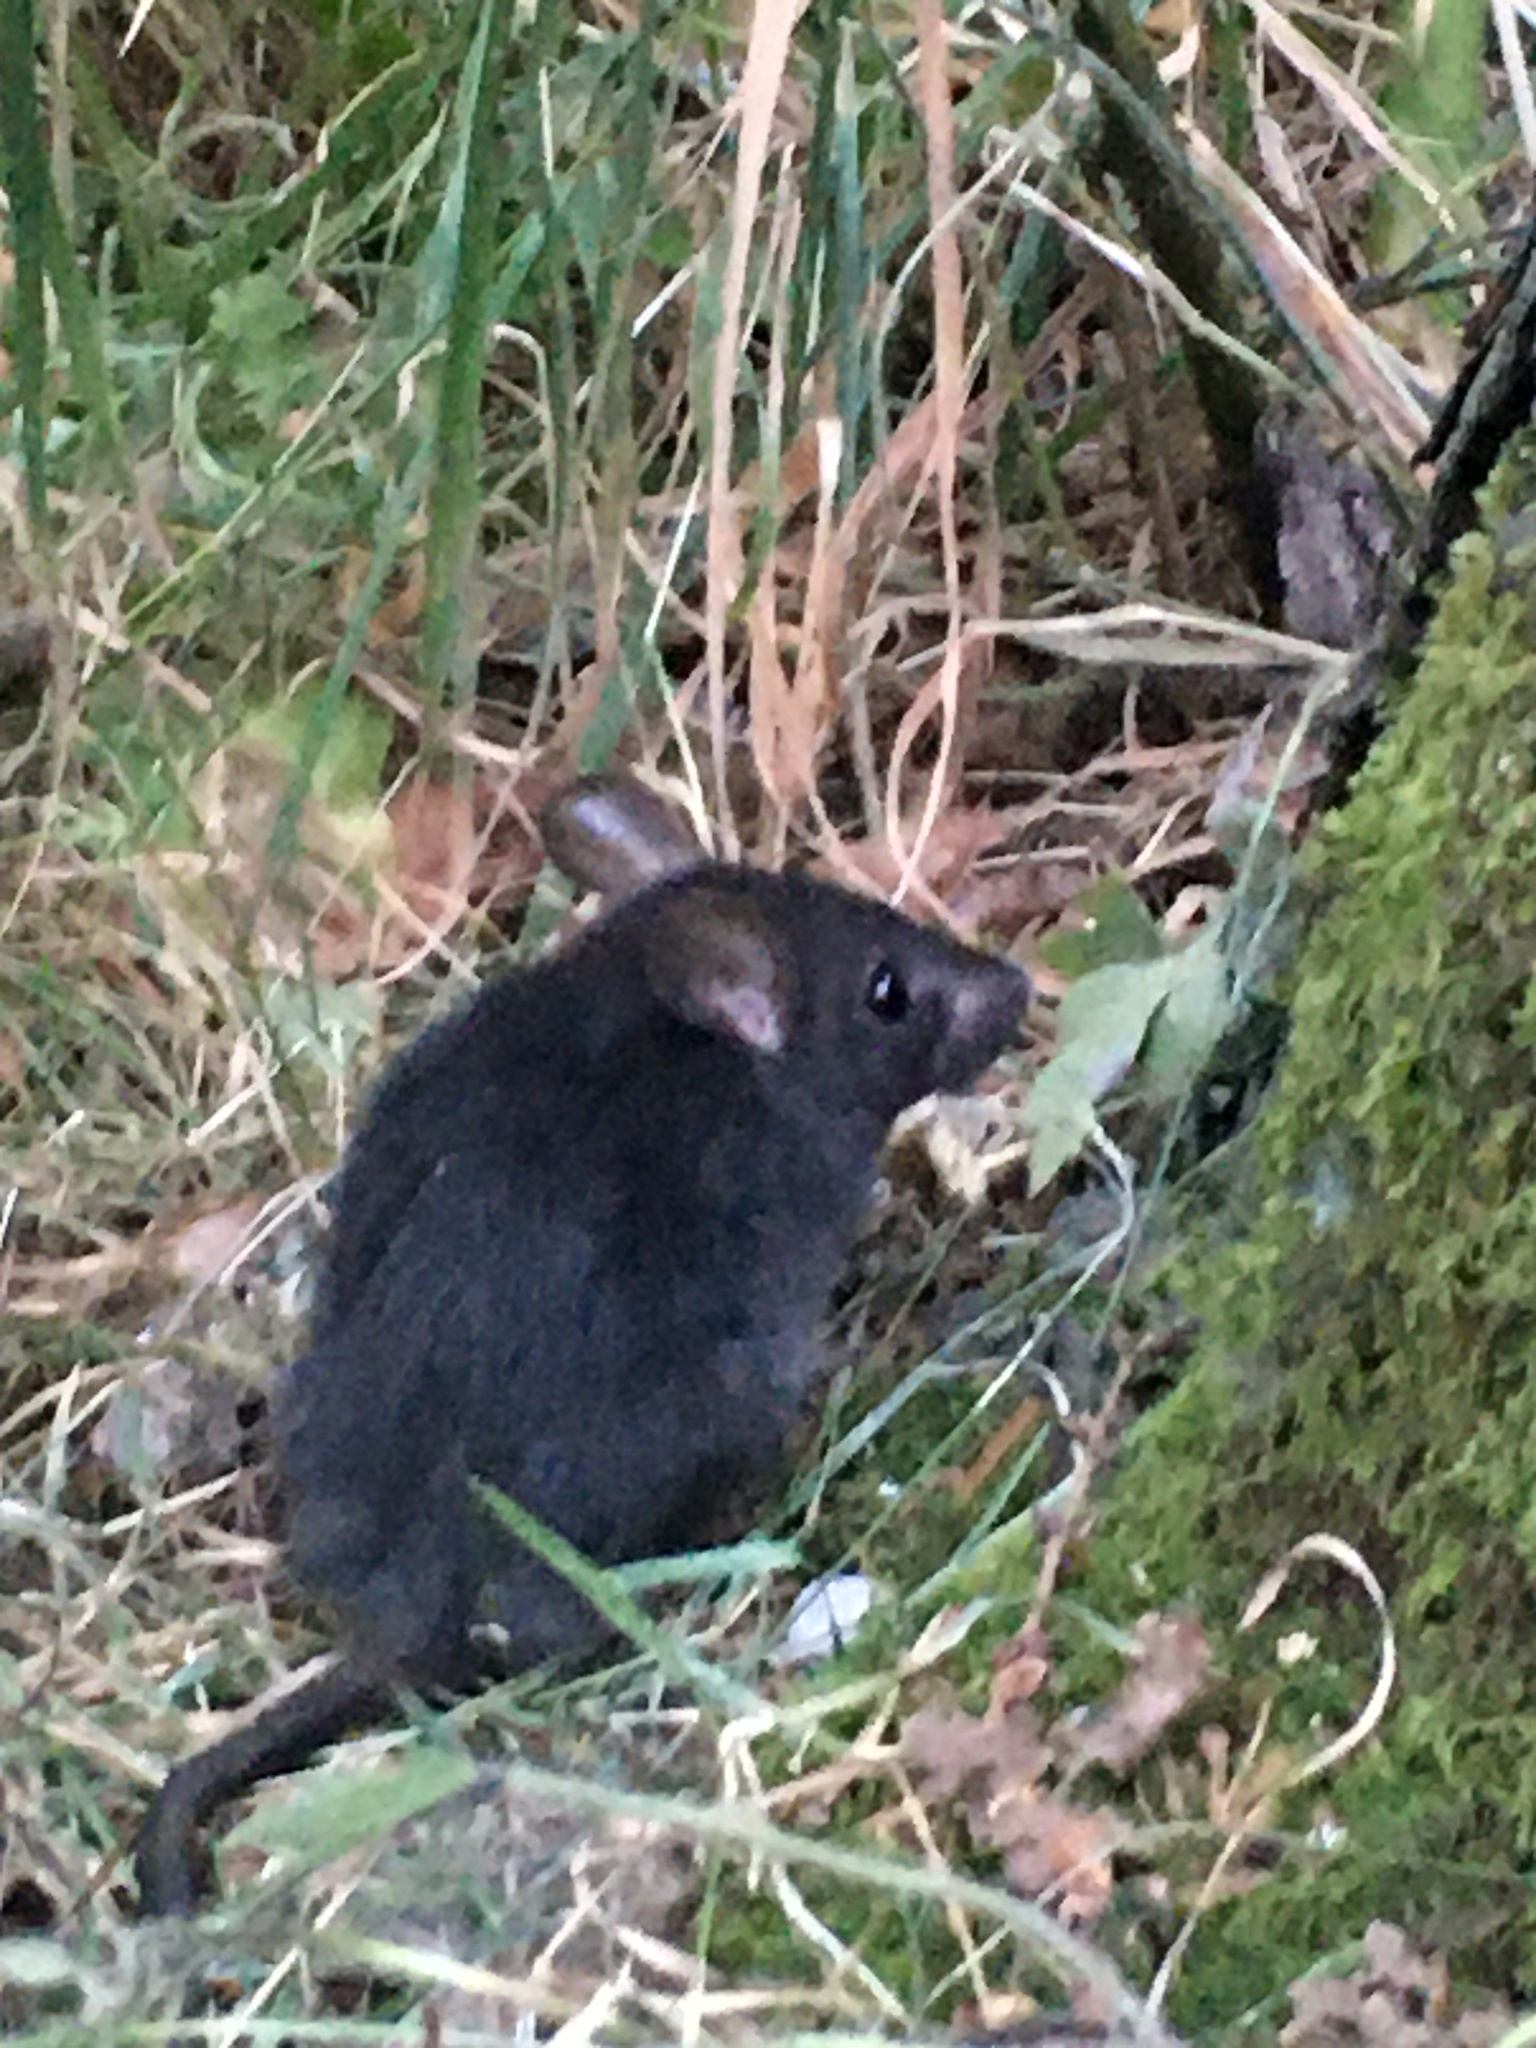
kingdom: Animalia
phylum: Chordata
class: Mammalia
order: Rodentia
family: Muridae
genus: Rattus
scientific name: Rattus rattus
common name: Black rat
